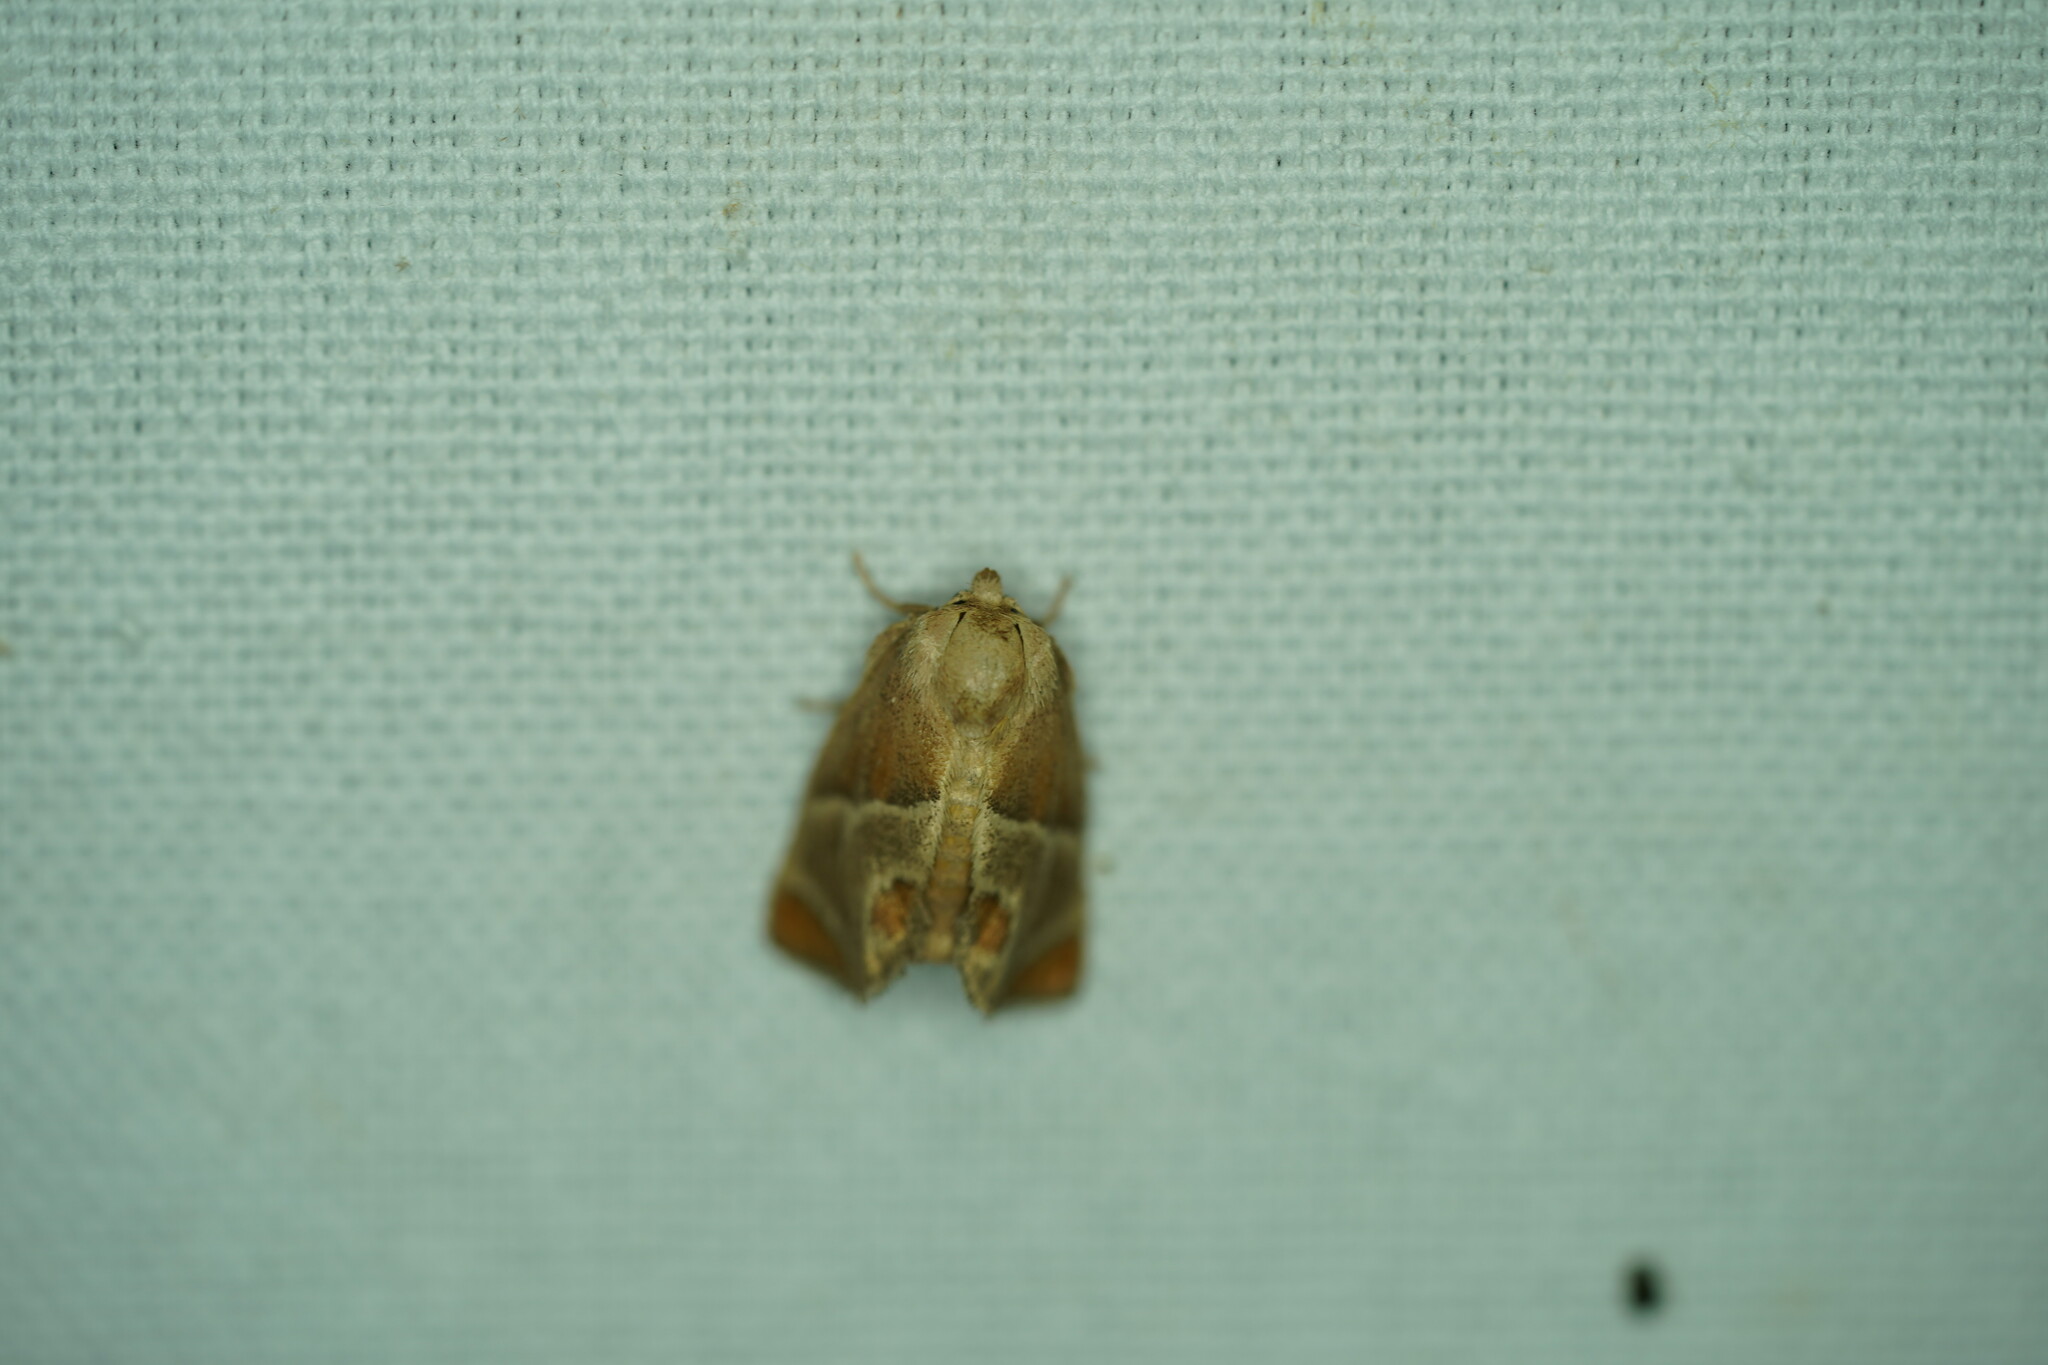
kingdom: Animalia
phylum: Arthropoda
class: Insecta
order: Lepidoptera
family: Limacodidae
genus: Apoda
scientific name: Apoda biguttata
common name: Shagreened slug moth
